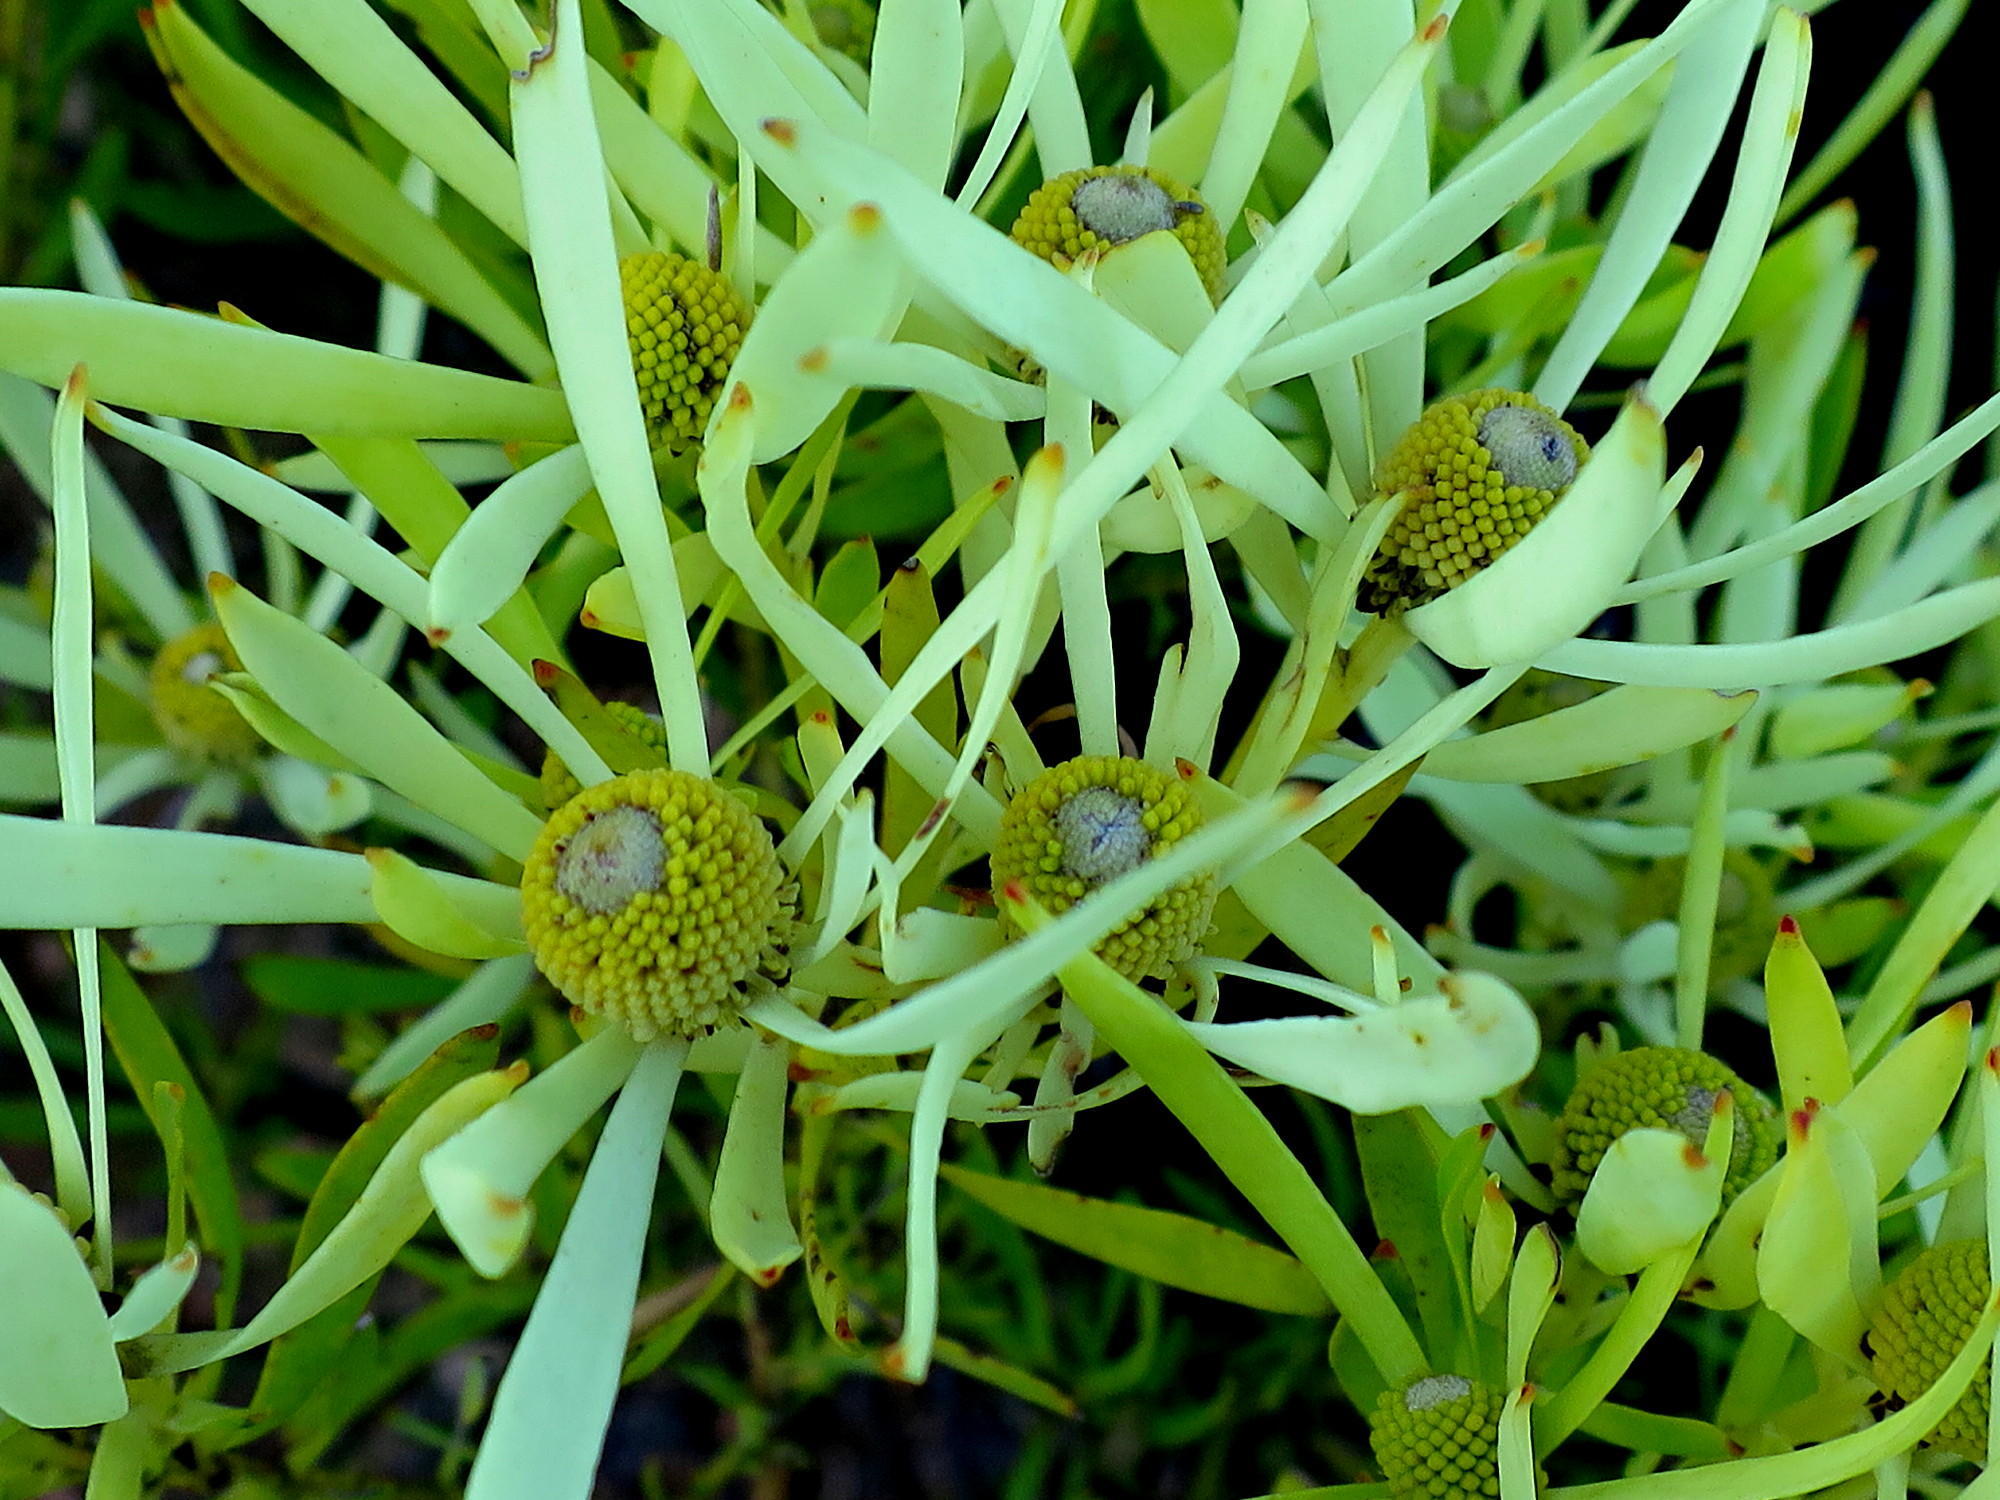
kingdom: Plantae
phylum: Tracheophyta
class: Magnoliopsida
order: Proteales
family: Proteaceae
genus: Leucadendron
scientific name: Leucadendron salignum
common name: Common sunshine conebush
